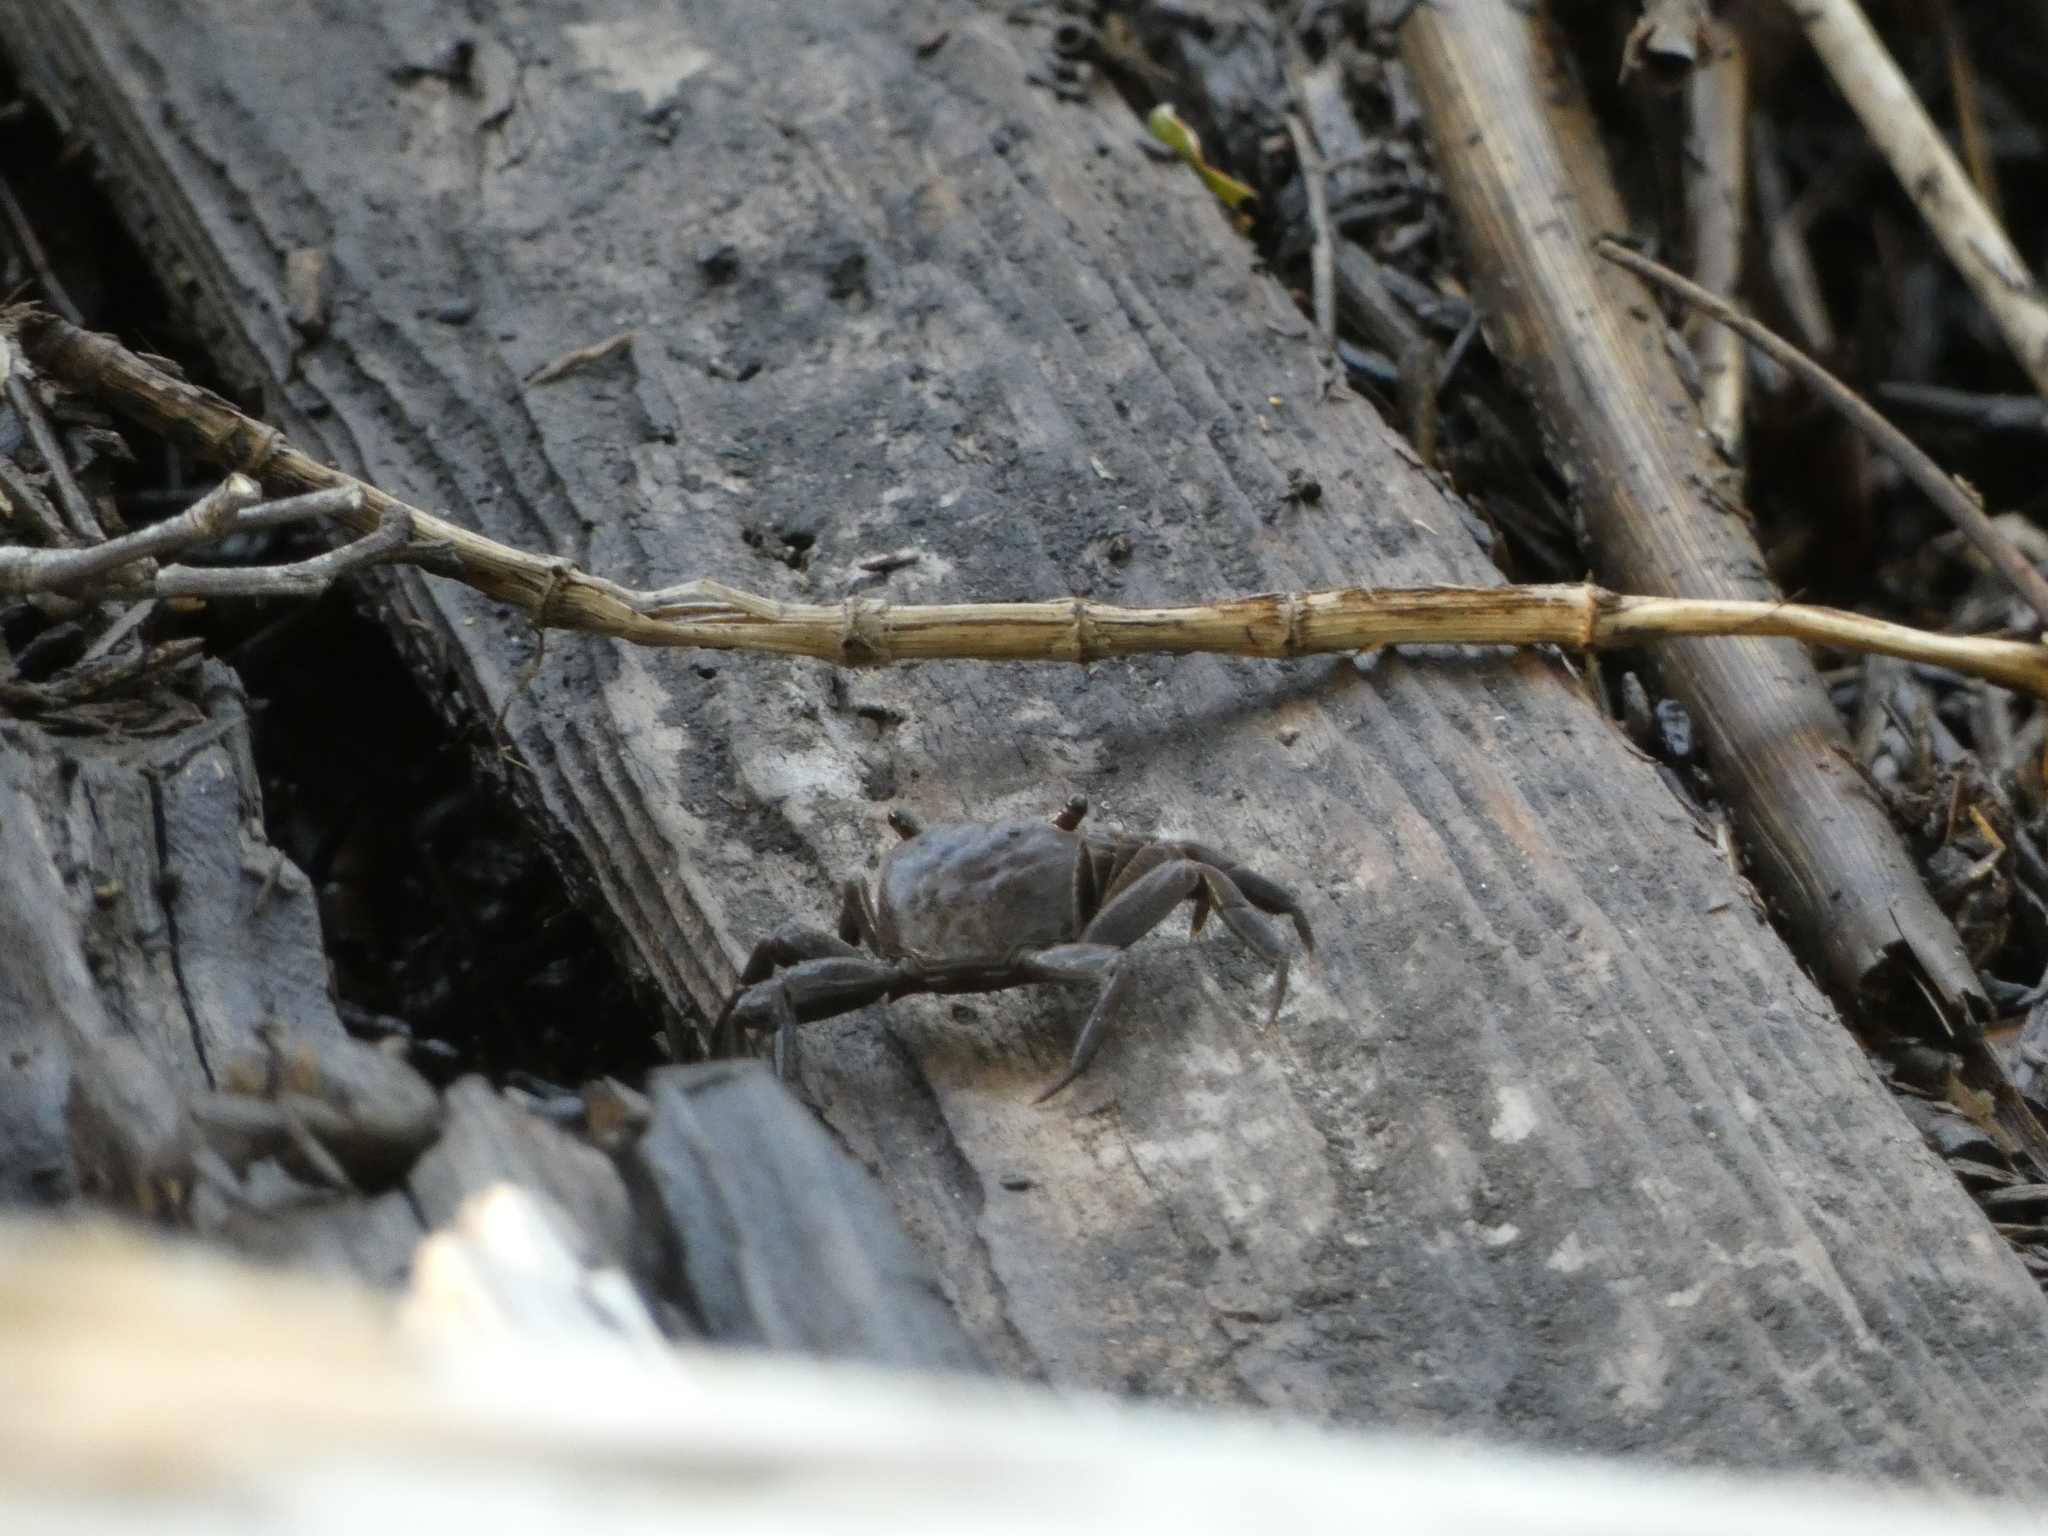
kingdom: Animalia
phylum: Arthropoda
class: Malacostraca
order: Decapoda
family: Sesarmidae
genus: Armases
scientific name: Armases cinereum
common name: Squareback marsh crab
